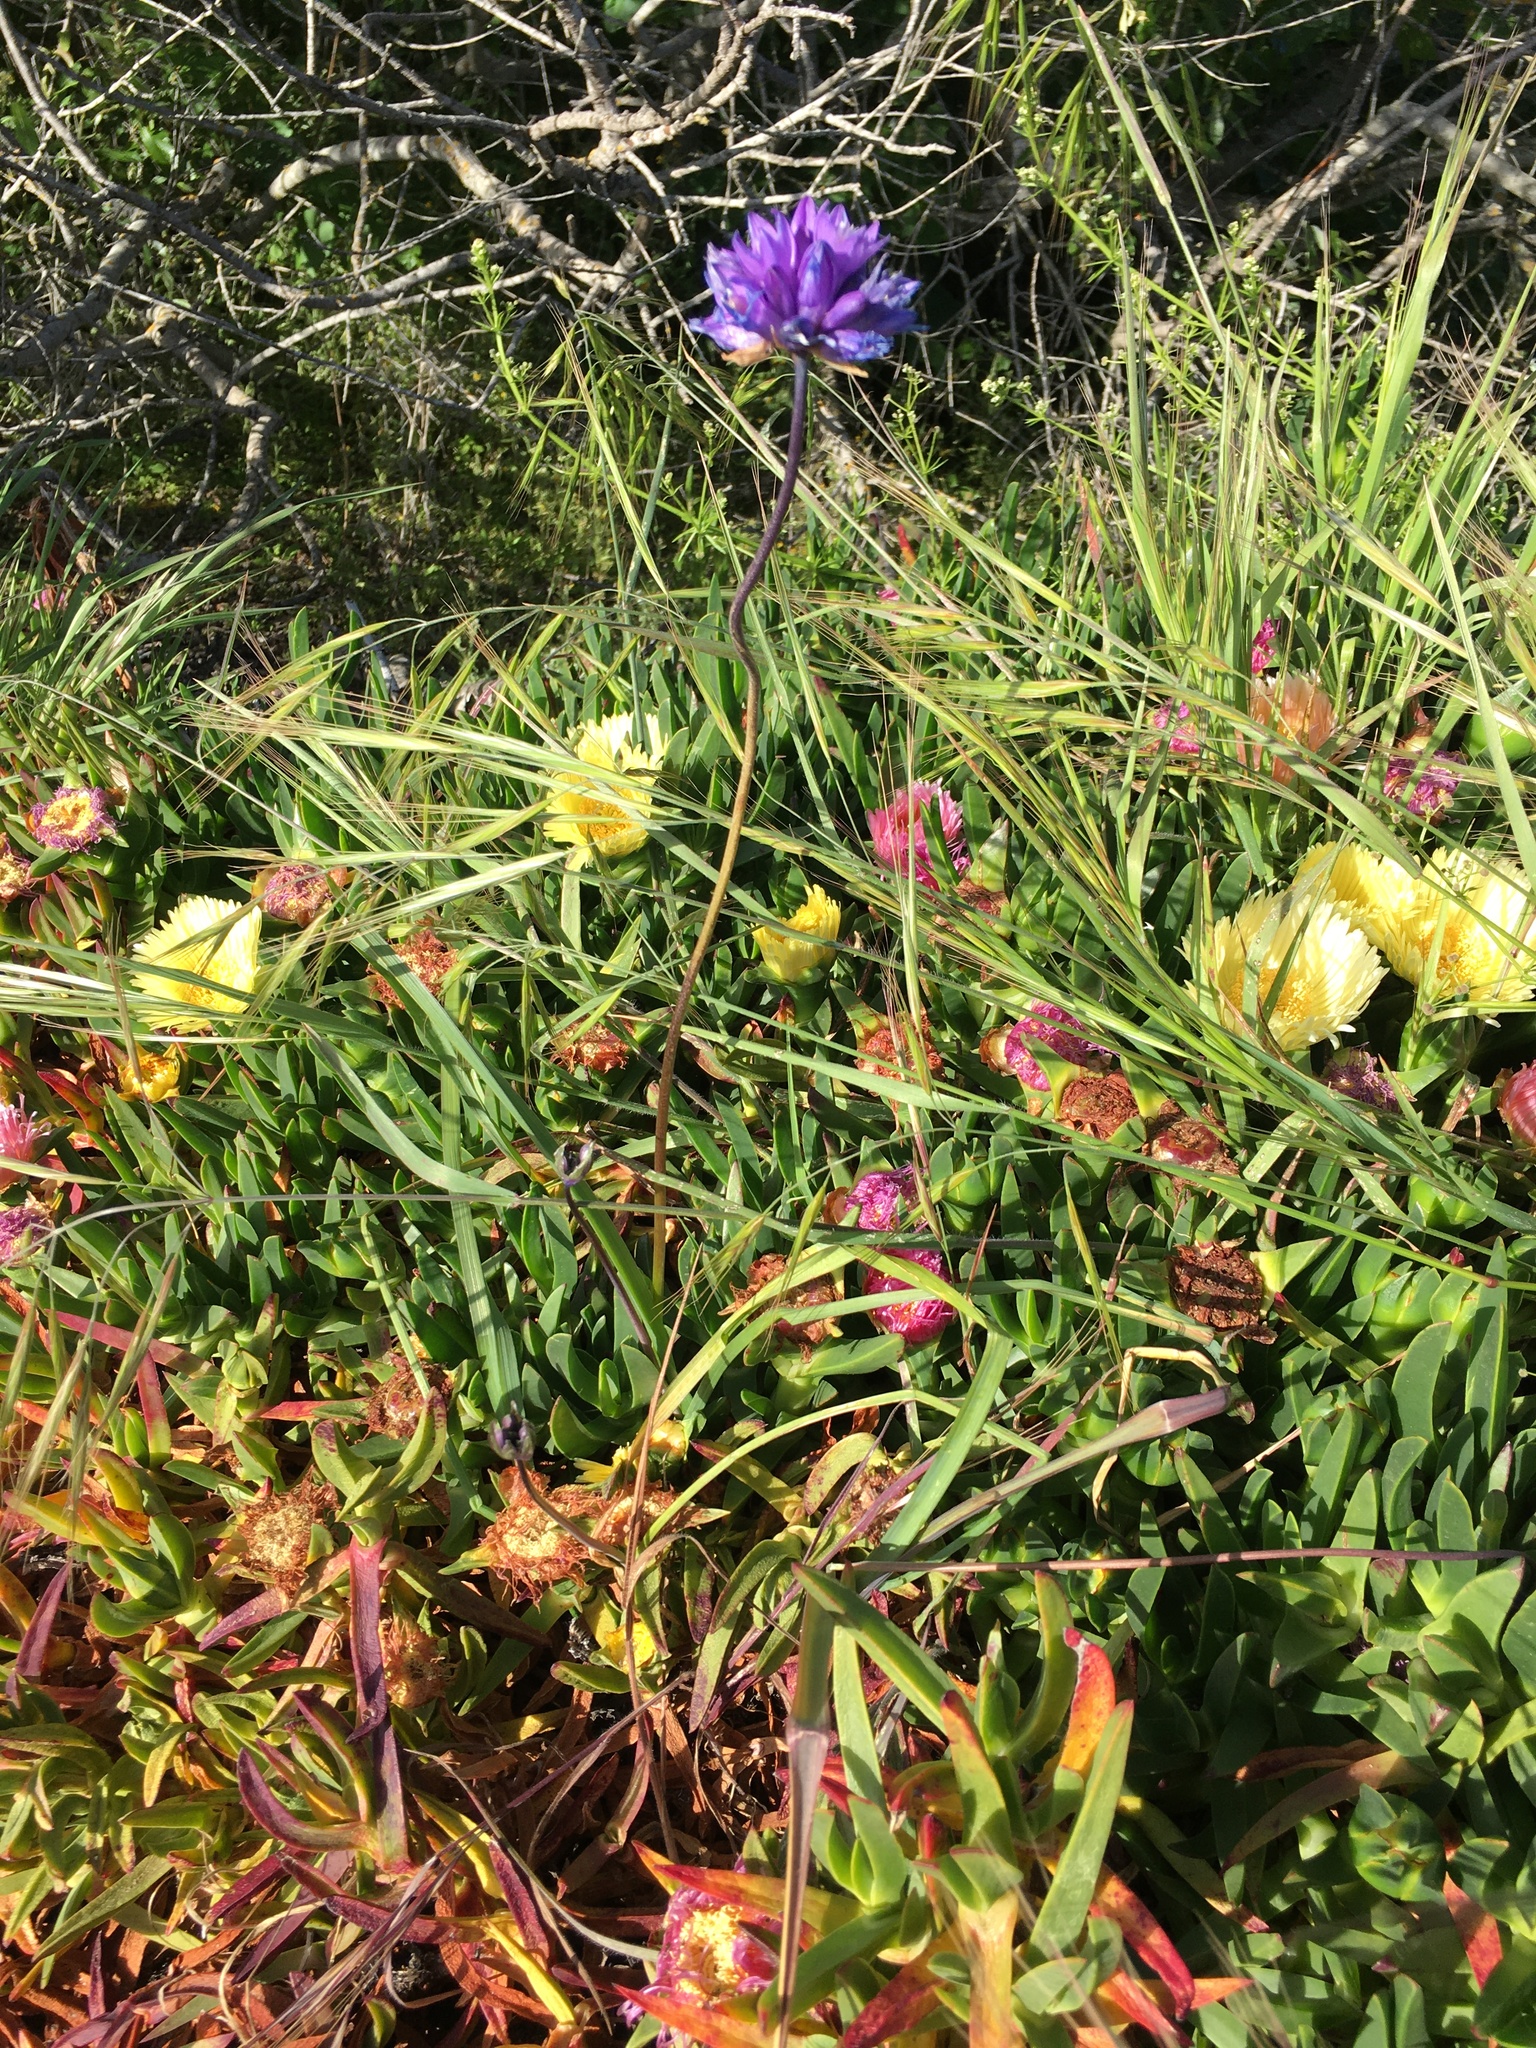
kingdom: Plantae
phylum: Tracheophyta
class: Liliopsida
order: Asparagales
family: Asparagaceae
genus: Dipterostemon
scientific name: Dipterostemon capitatus
